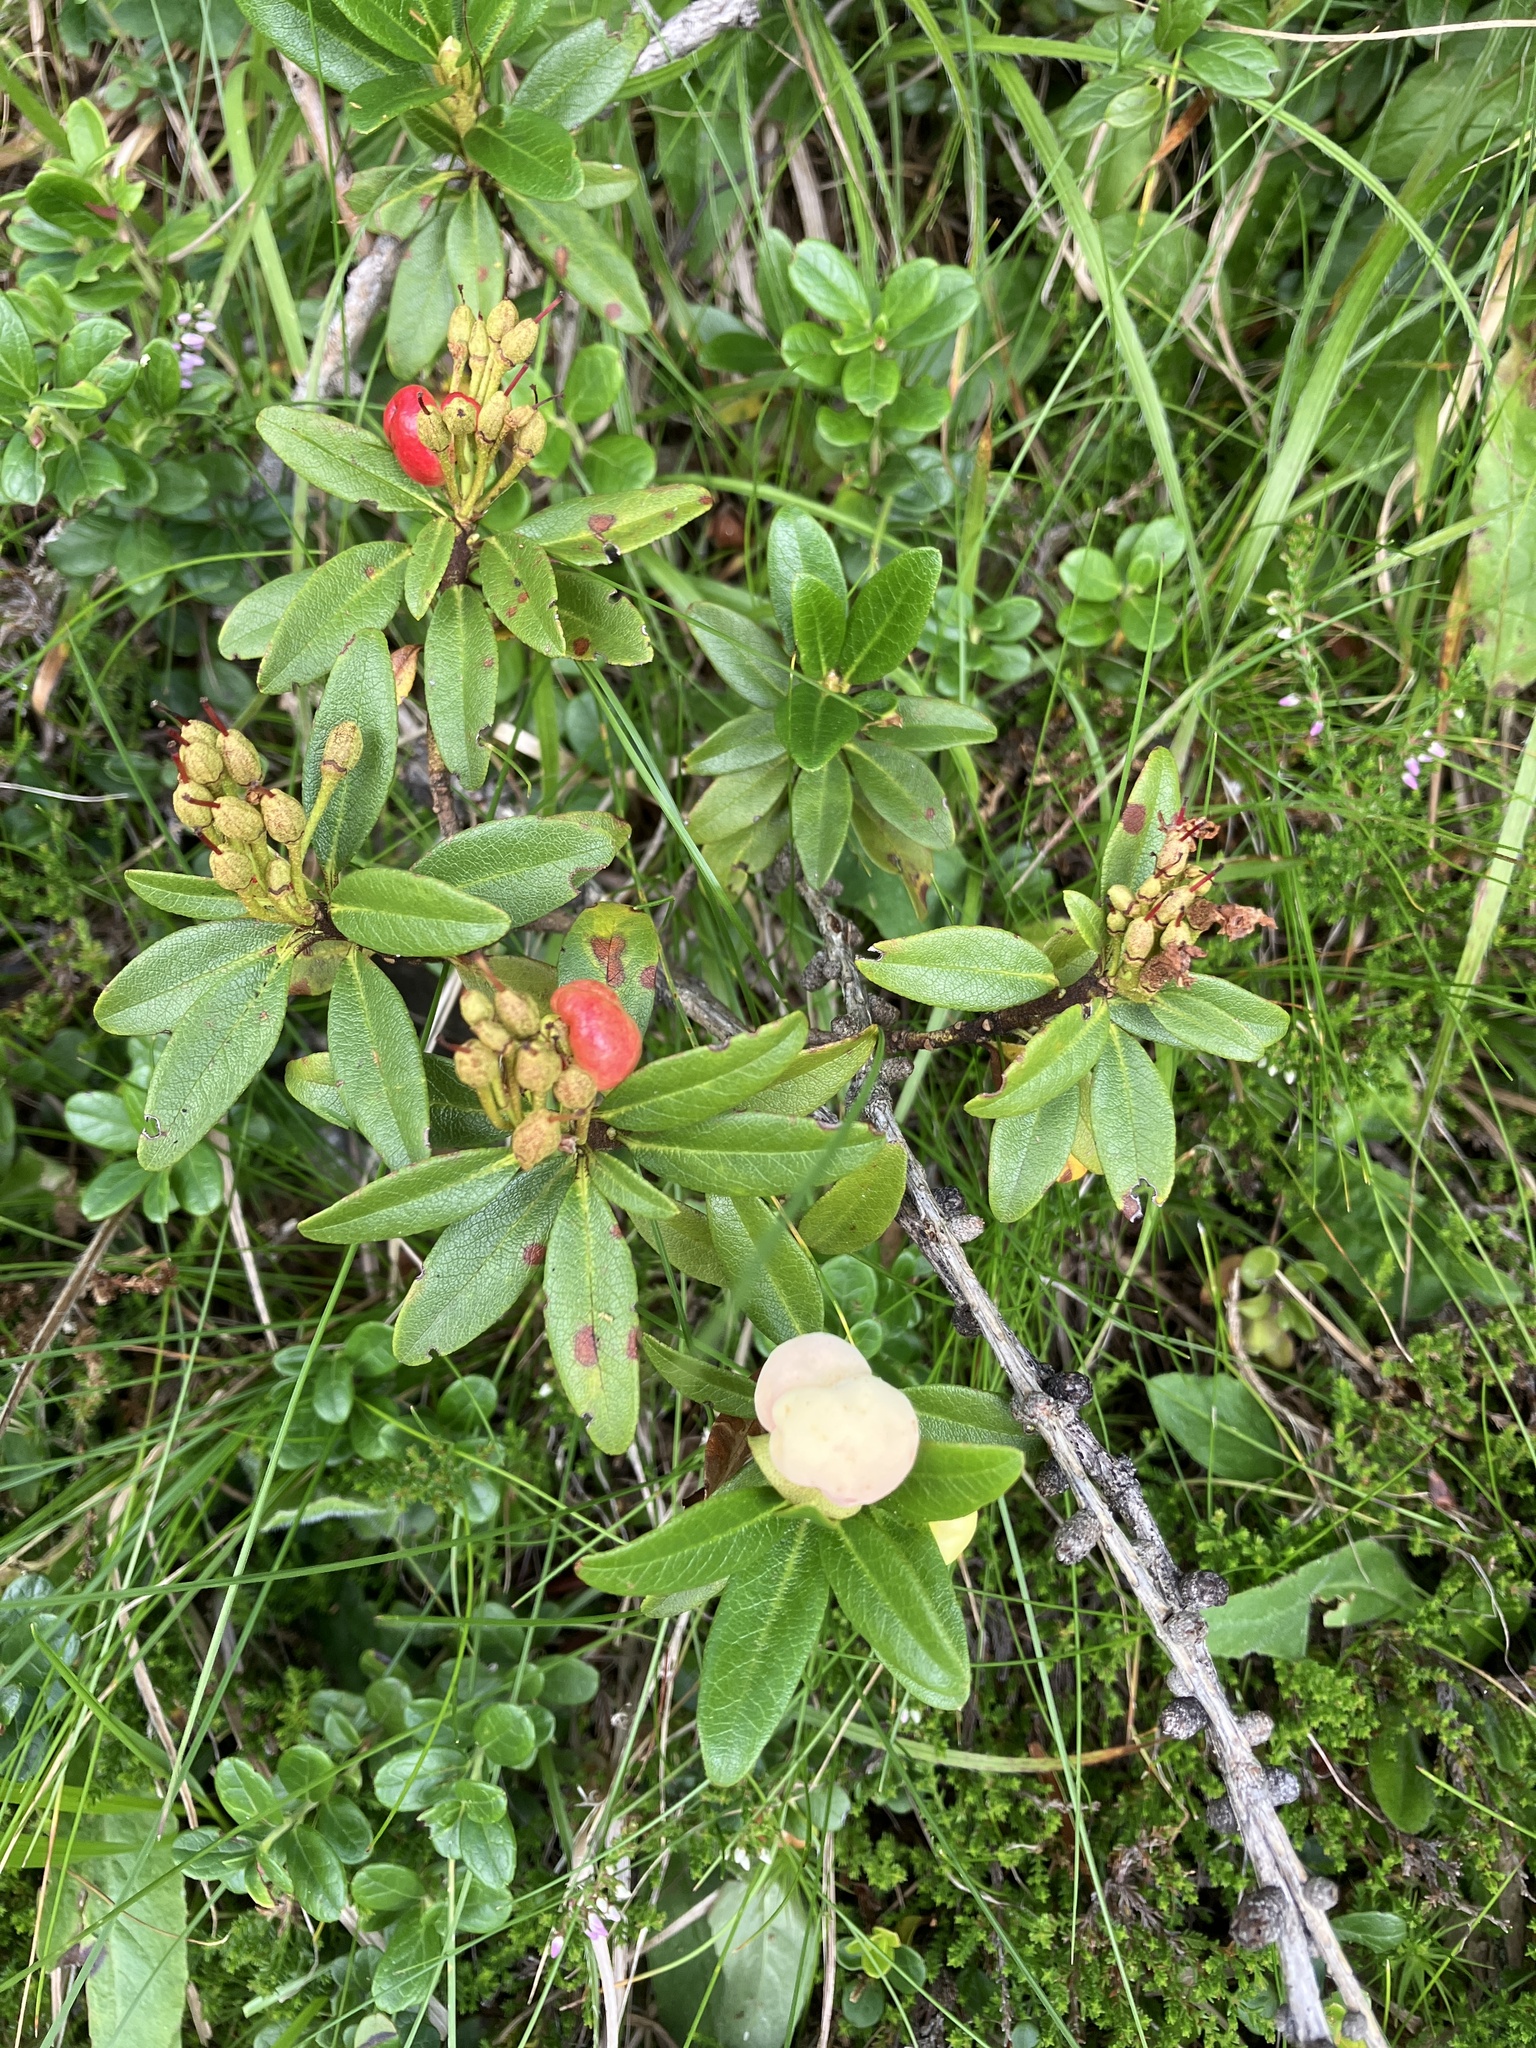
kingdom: Plantae
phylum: Tracheophyta
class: Magnoliopsida
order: Ericales
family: Ericaceae
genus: Rhododendron
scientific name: Rhododendron ferrugineum
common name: Alpenrose
